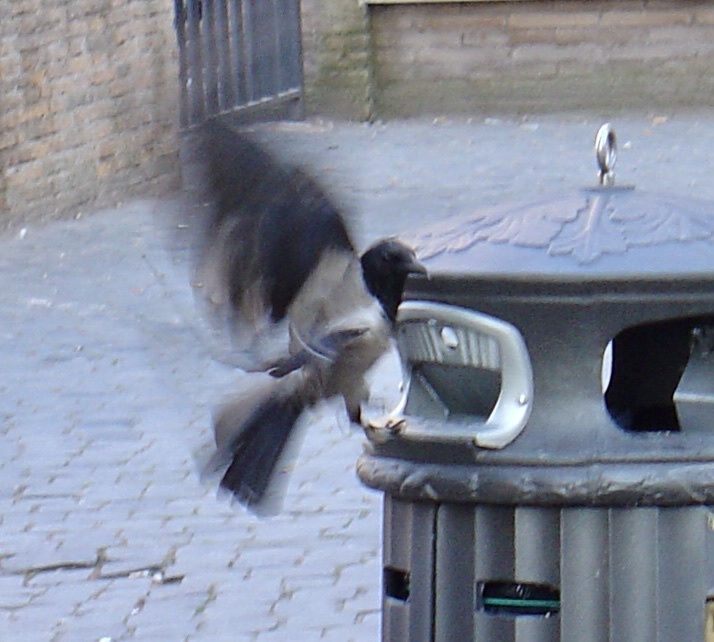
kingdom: Animalia
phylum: Chordata
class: Aves
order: Passeriformes
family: Corvidae
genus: Corvus
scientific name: Corvus cornix
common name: Hooded crow
